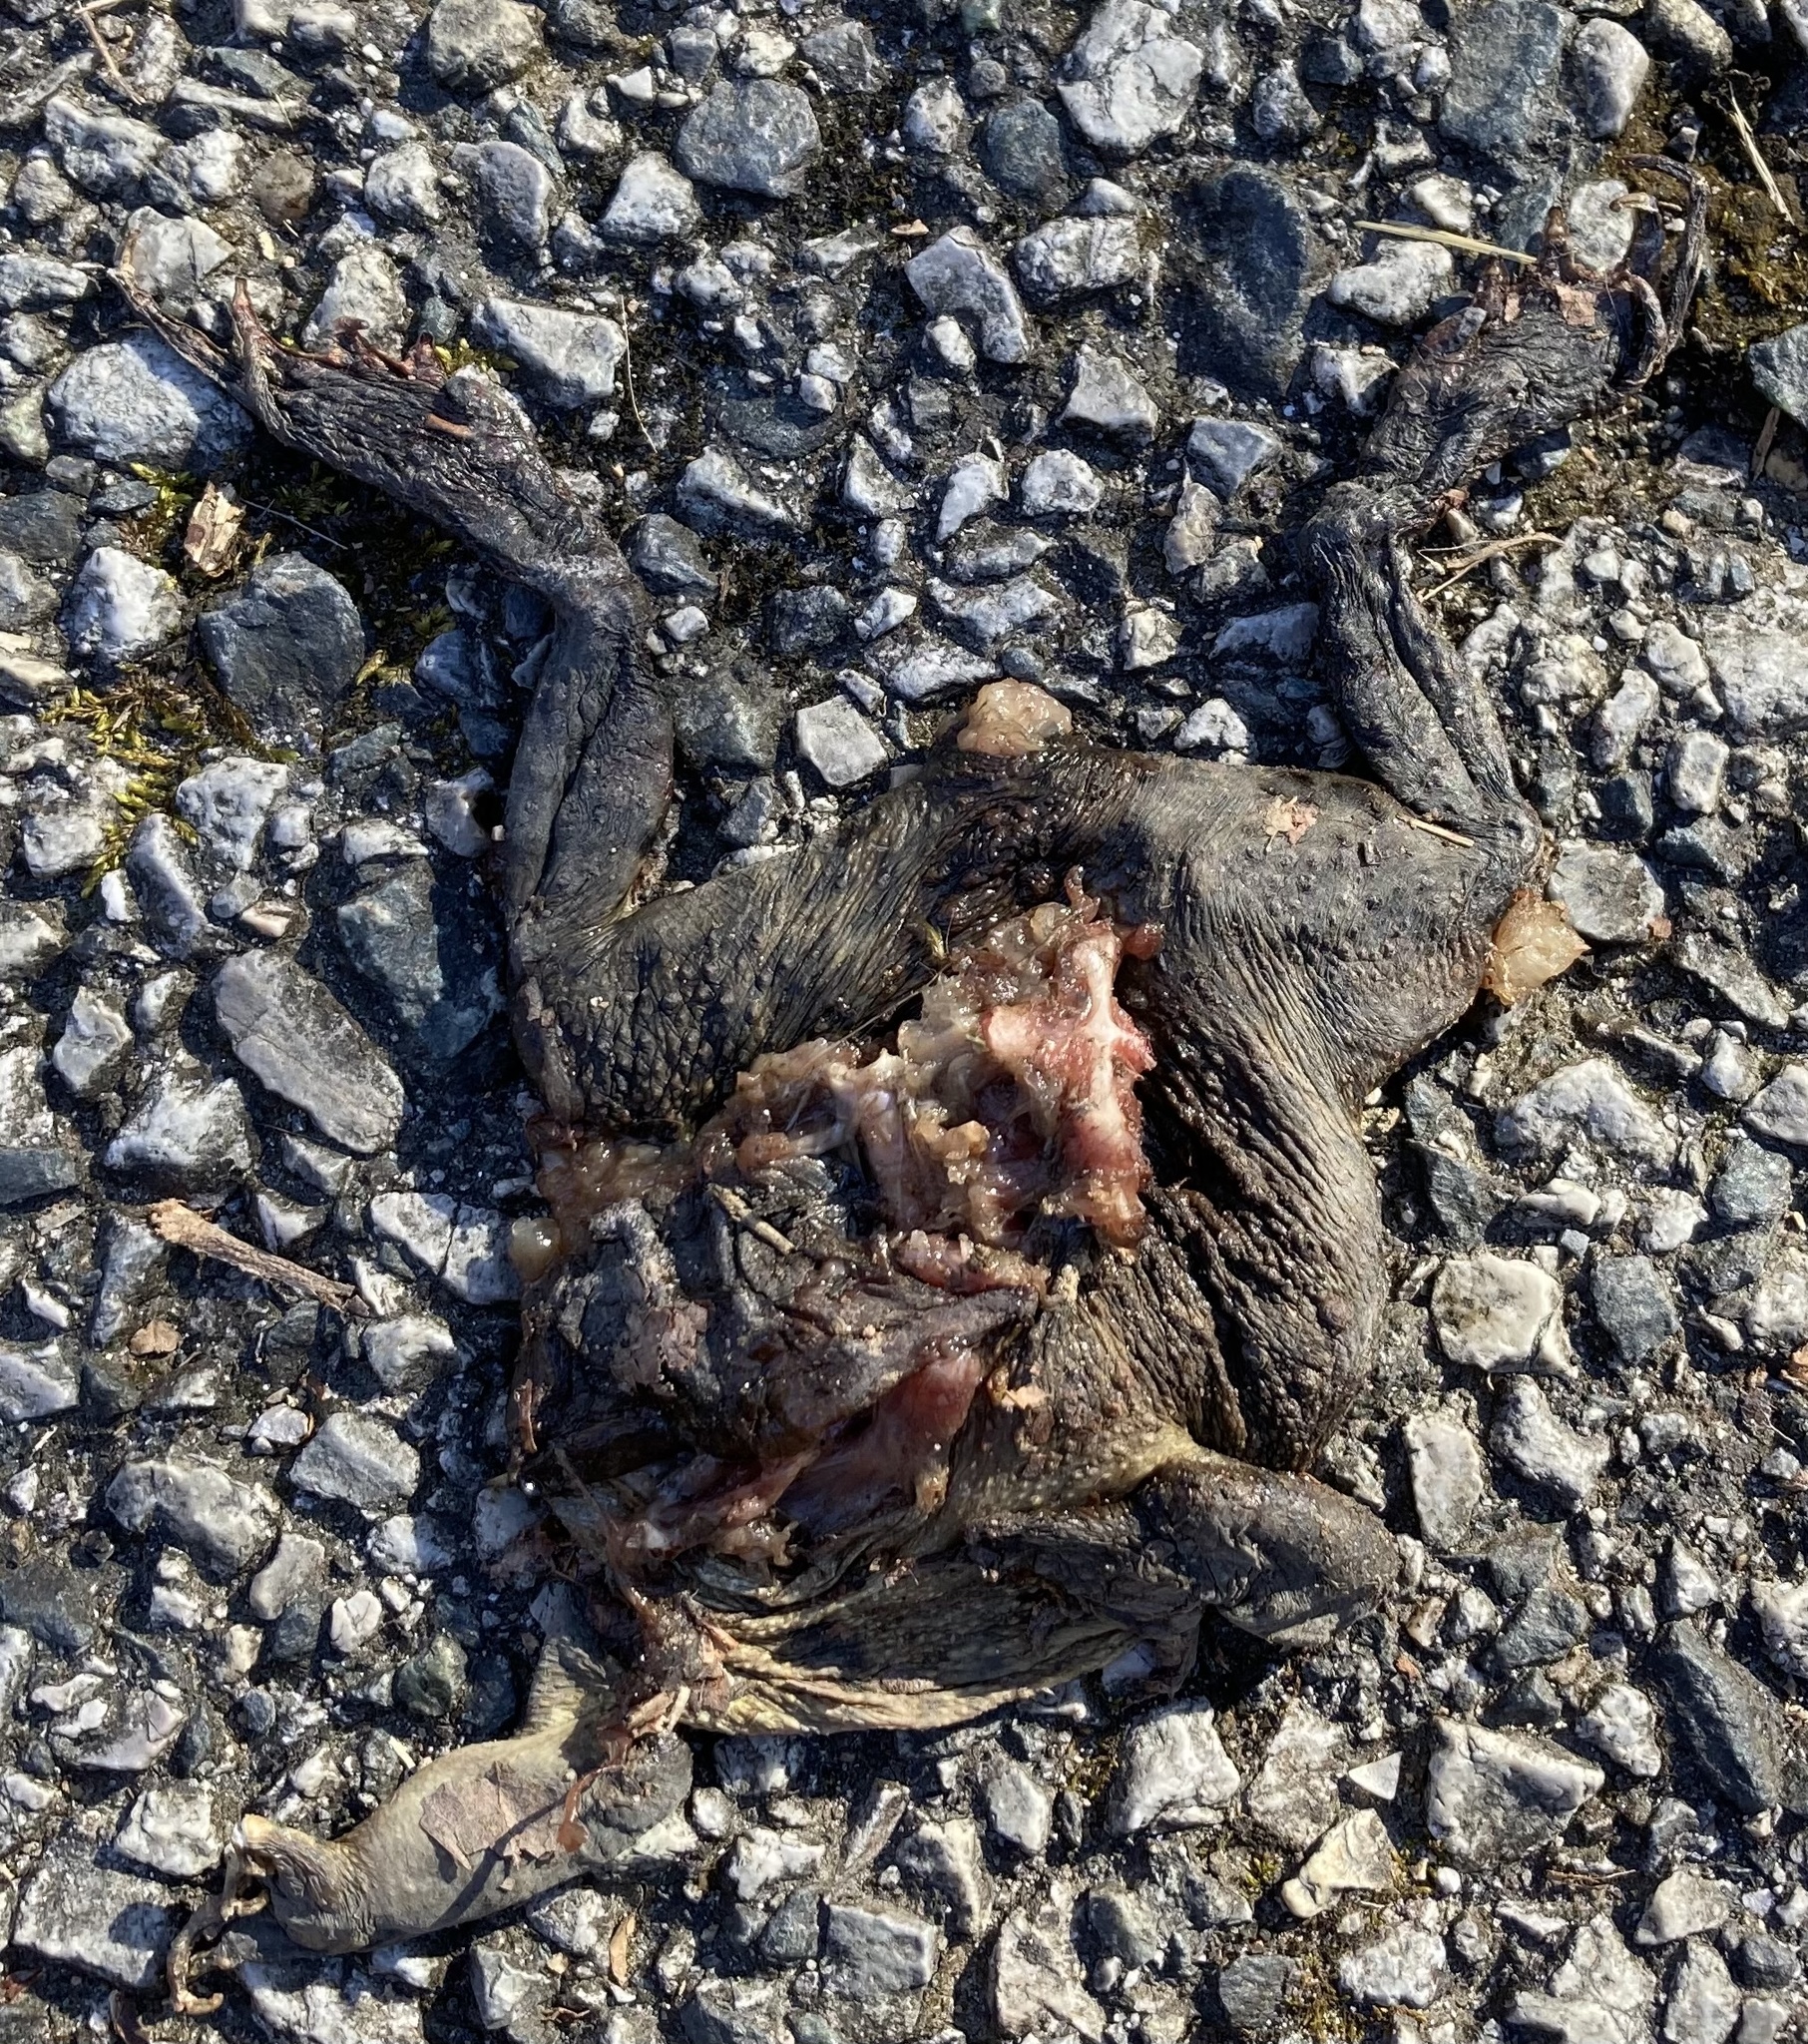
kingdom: Animalia
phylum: Chordata
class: Amphibia
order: Anura
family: Bufonidae
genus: Anaxyrus
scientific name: Anaxyrus americanus
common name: American toad
